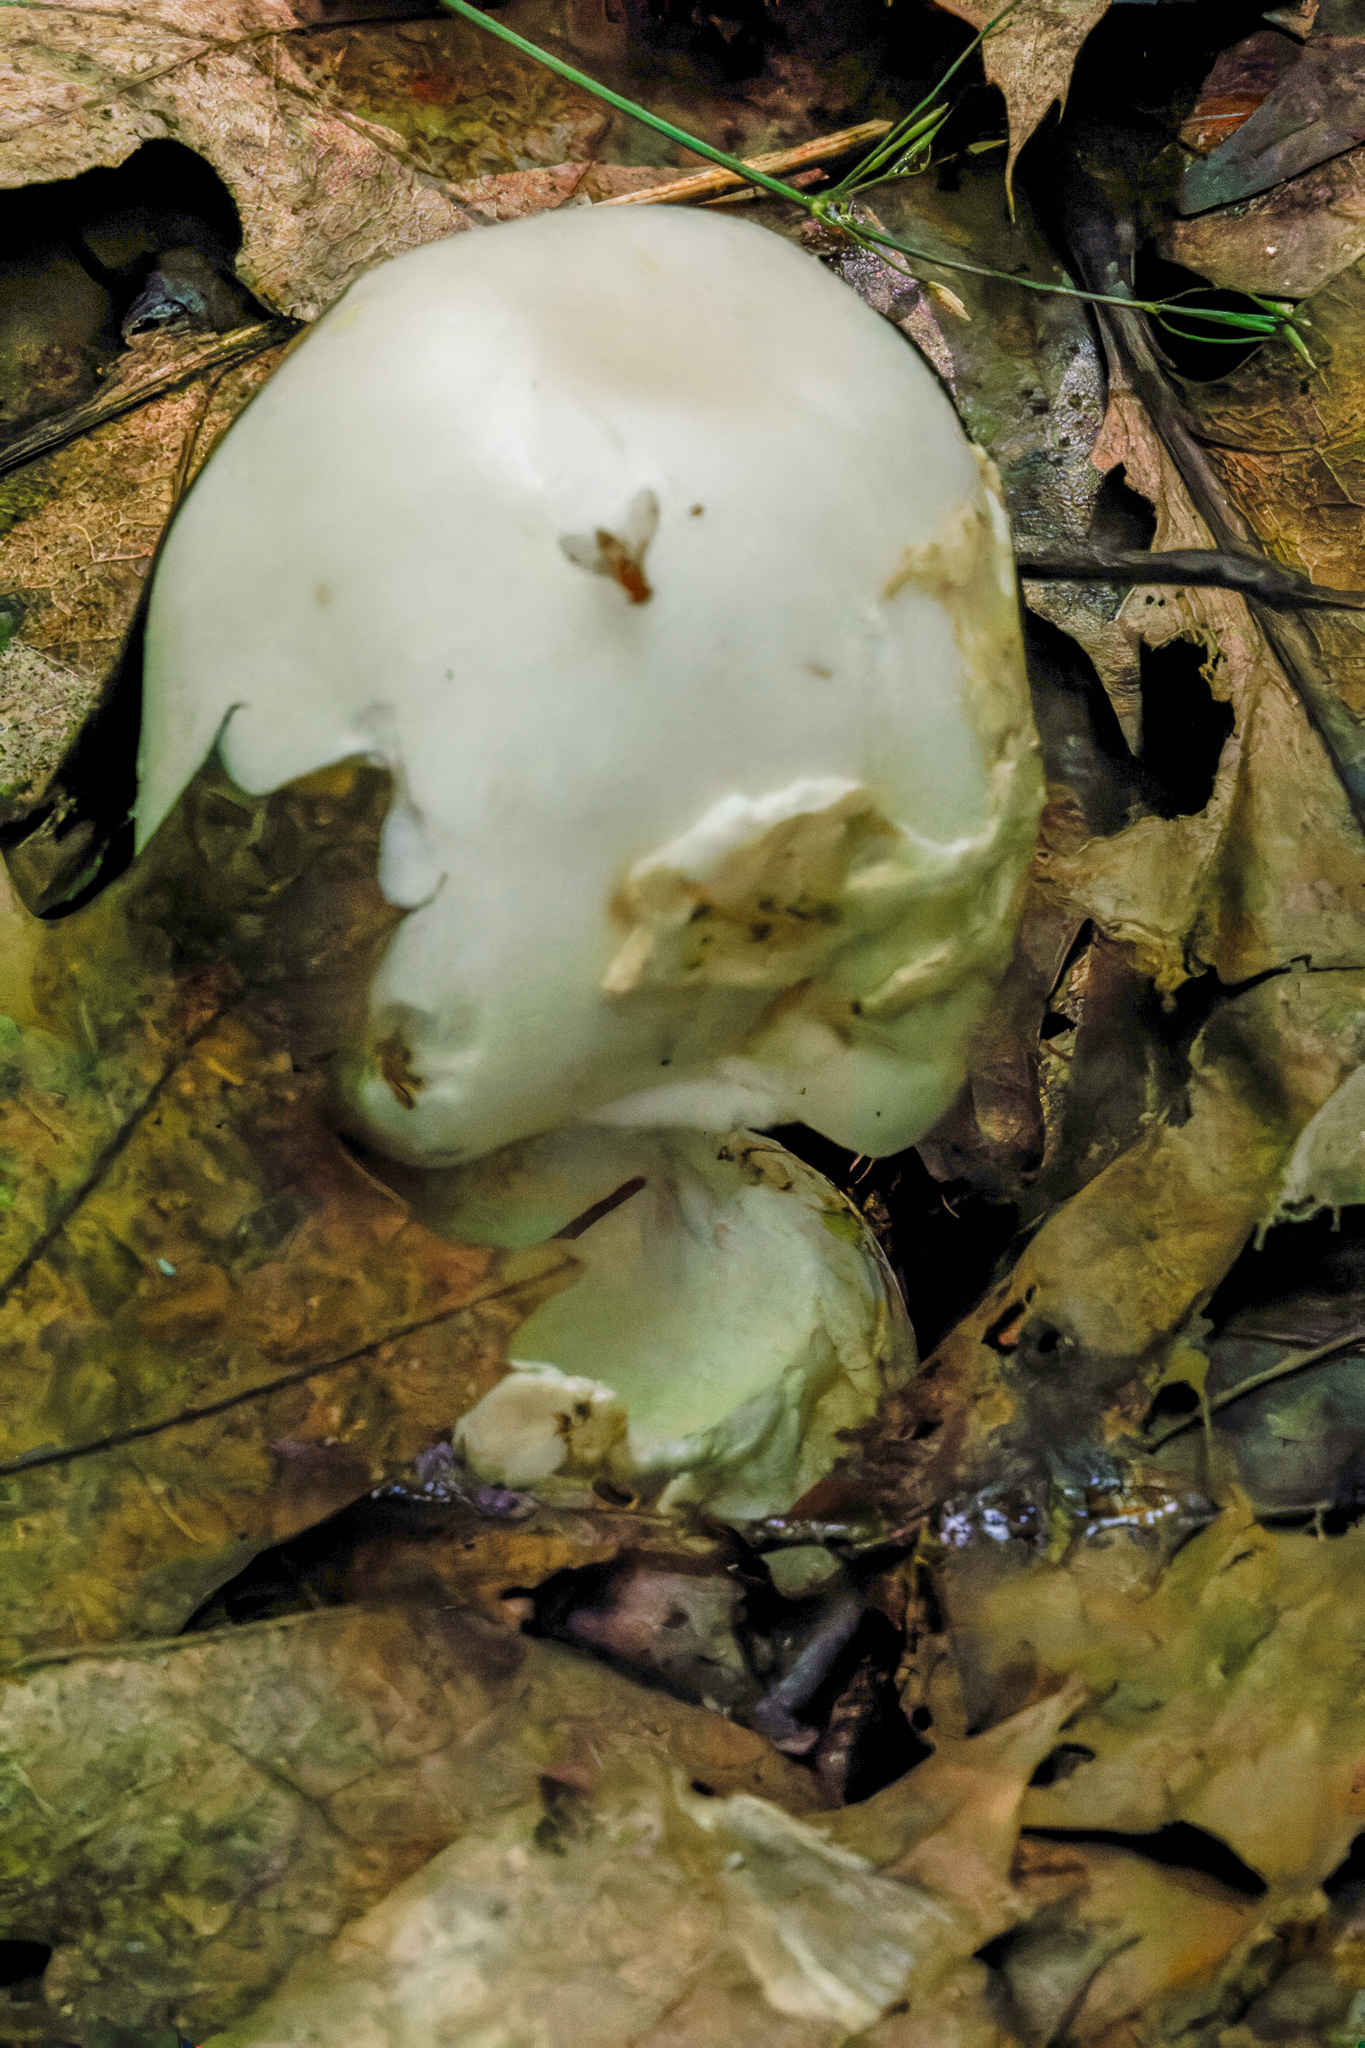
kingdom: Animalia
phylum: Arthropoda
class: Insecta
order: Diptera
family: Drosophilidae
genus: Leucophenga
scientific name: Leucophenga varia
